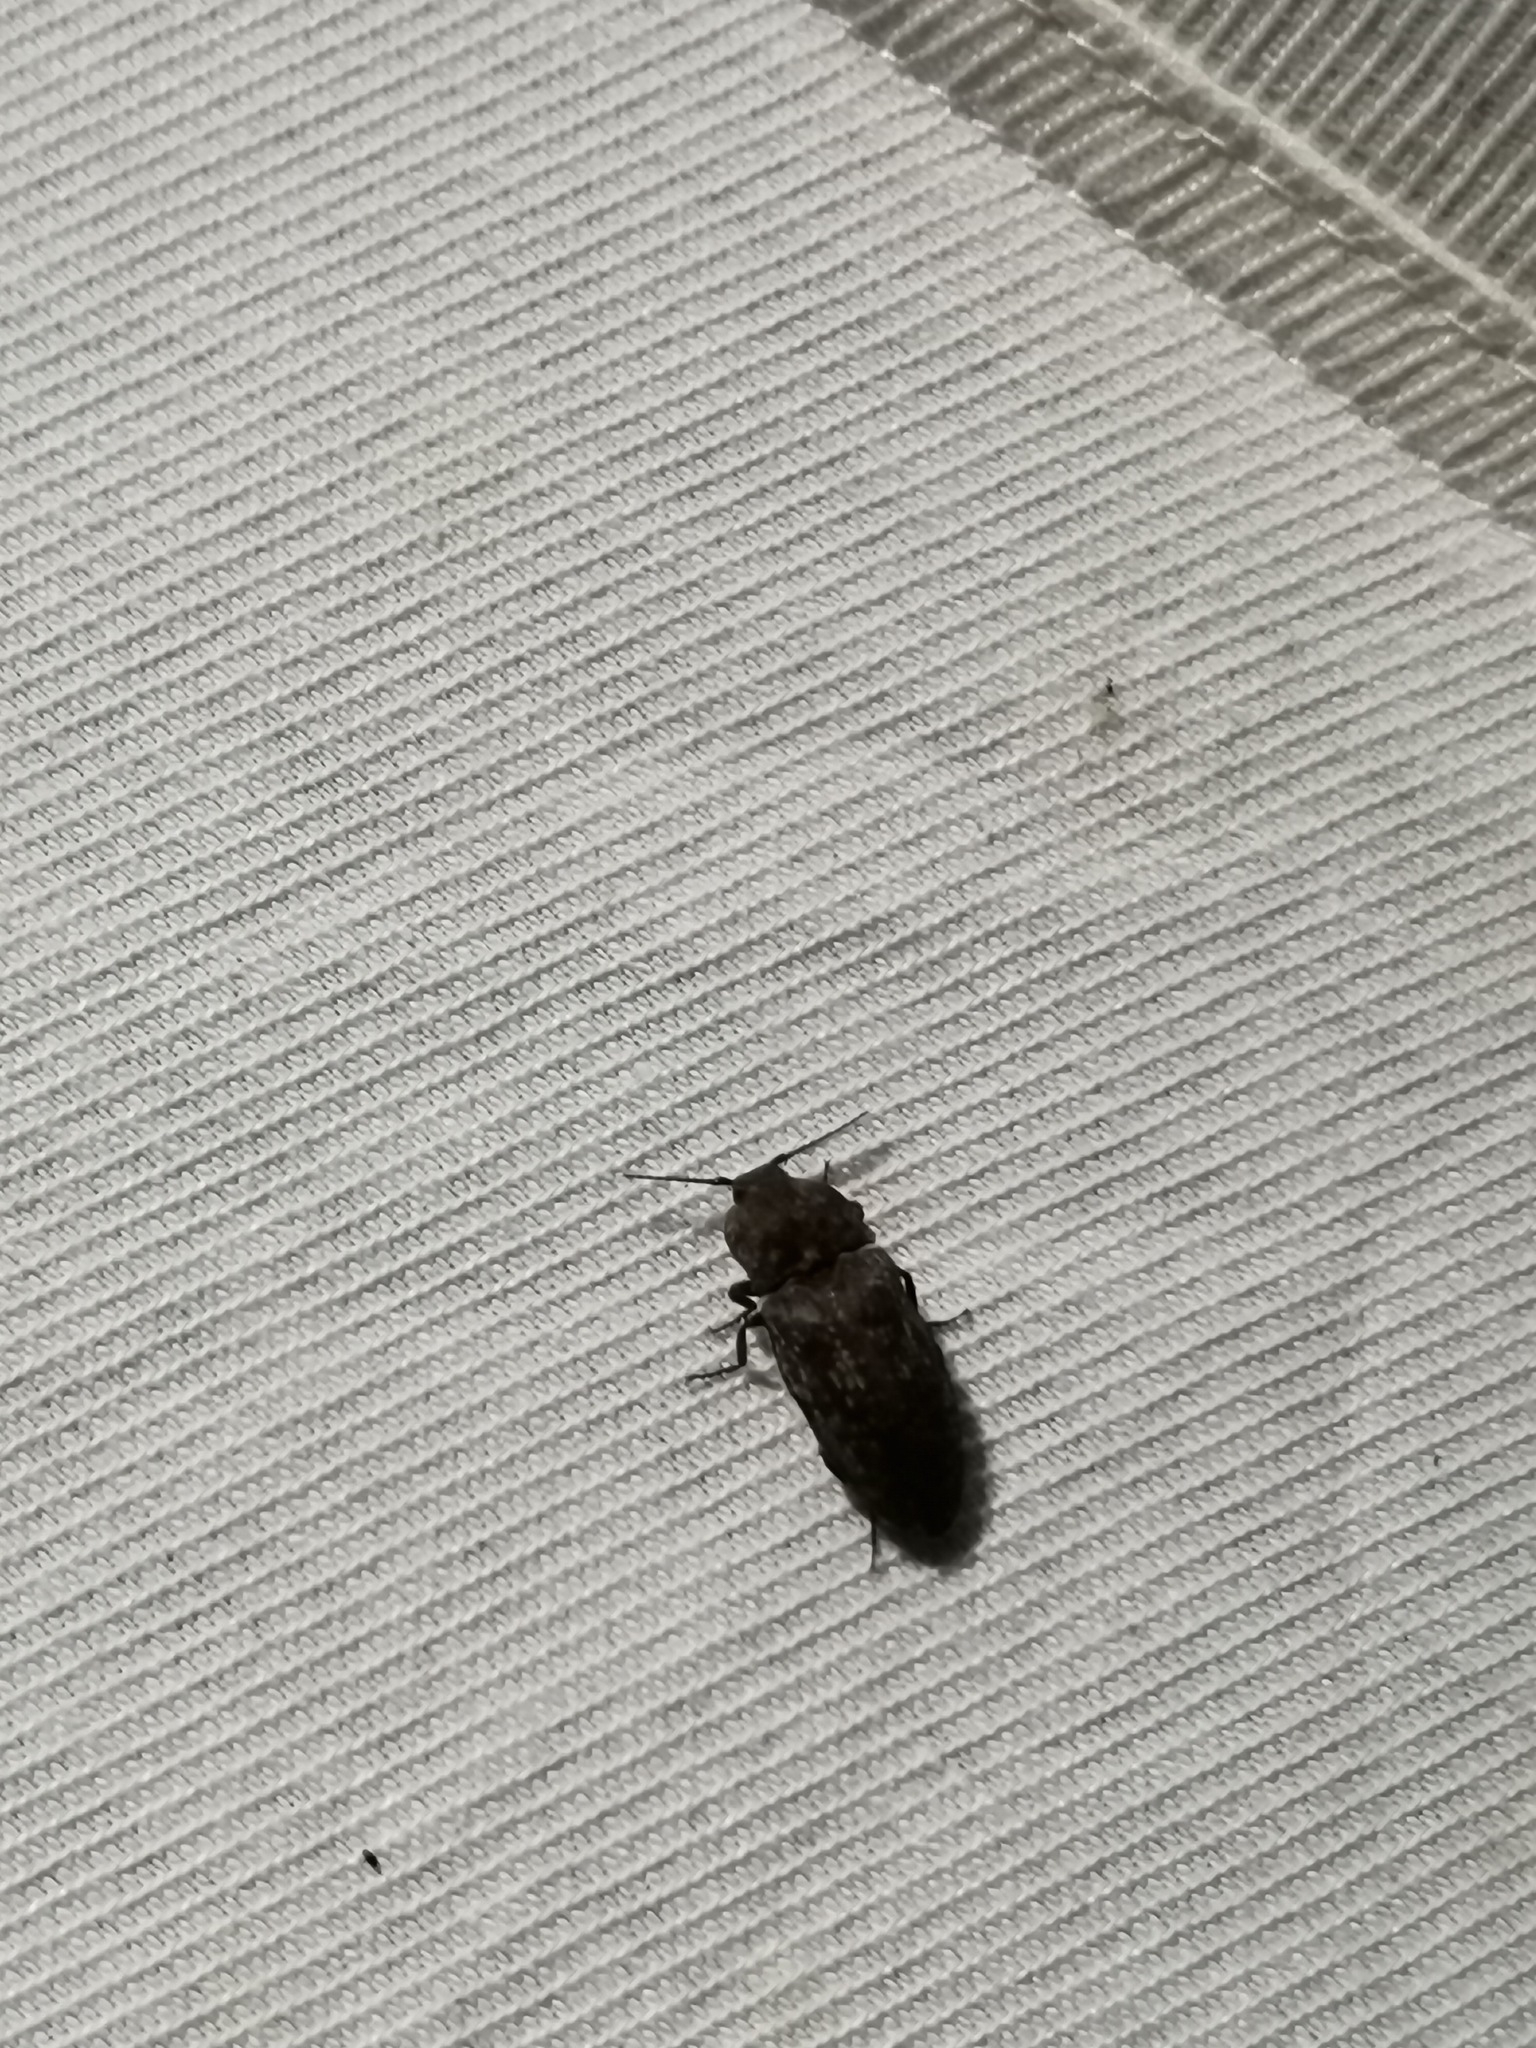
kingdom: Animalia
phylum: Arthropoda
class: Insecta
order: Coleoptera
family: Elateridae
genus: Agrypnus
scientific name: Agrypnus murinus
